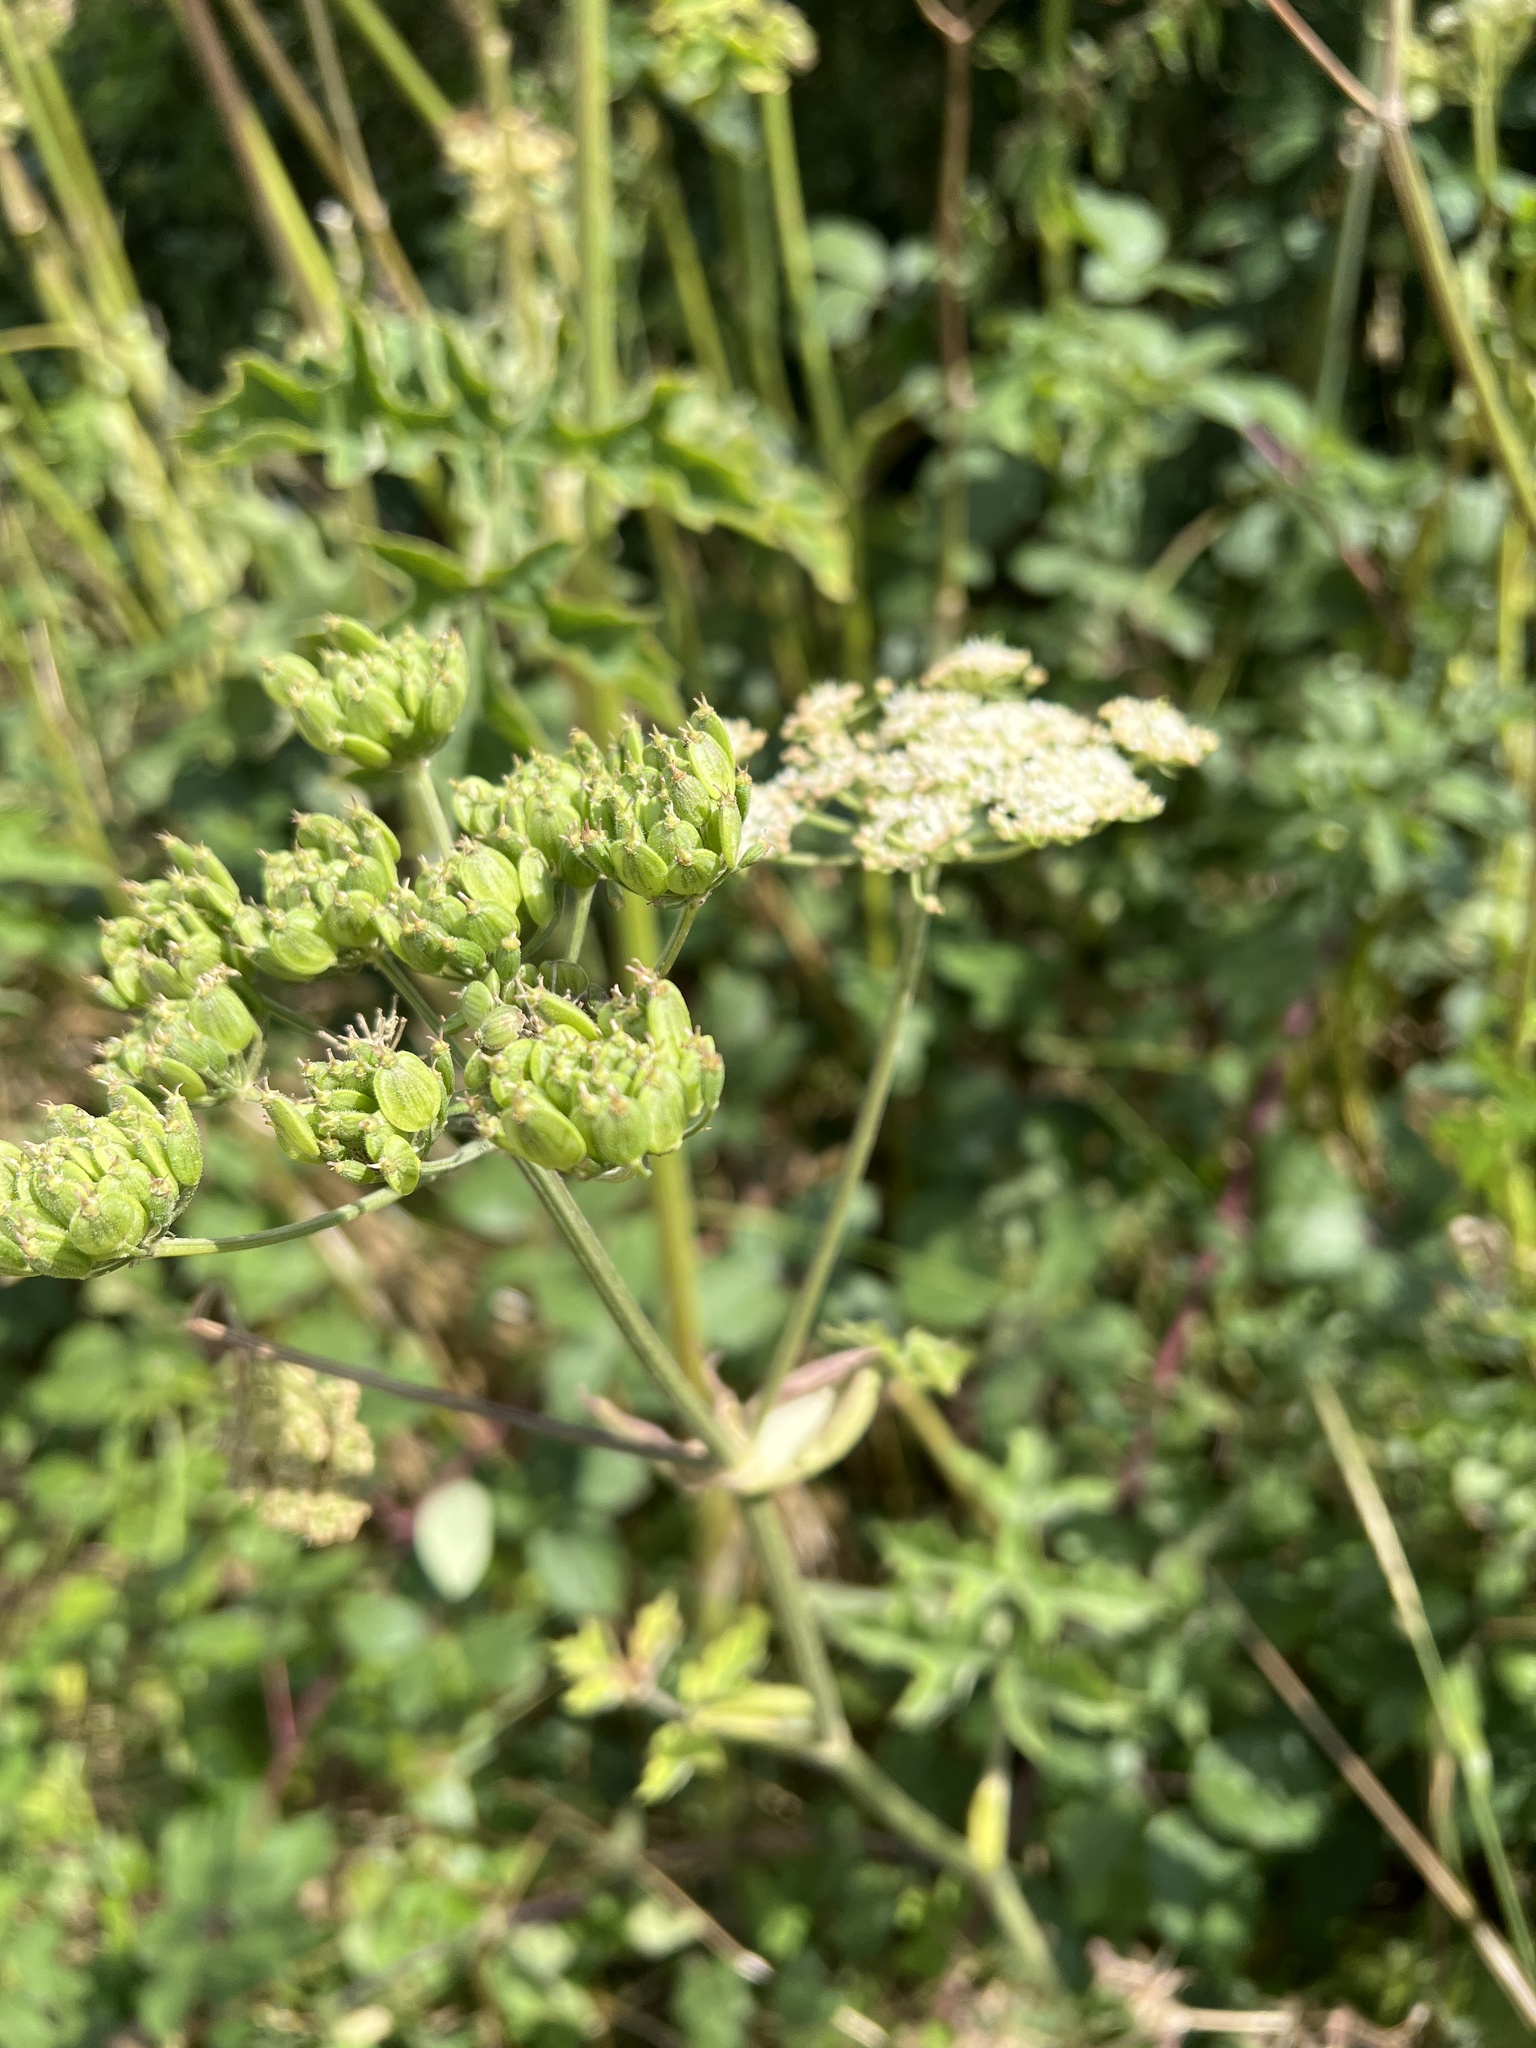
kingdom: Plantae
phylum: Tracheophyta
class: Magnoliopsida
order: Apiales
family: Apiaceae
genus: Heracleum
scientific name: Heracleum sphondylium
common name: Hogweed
